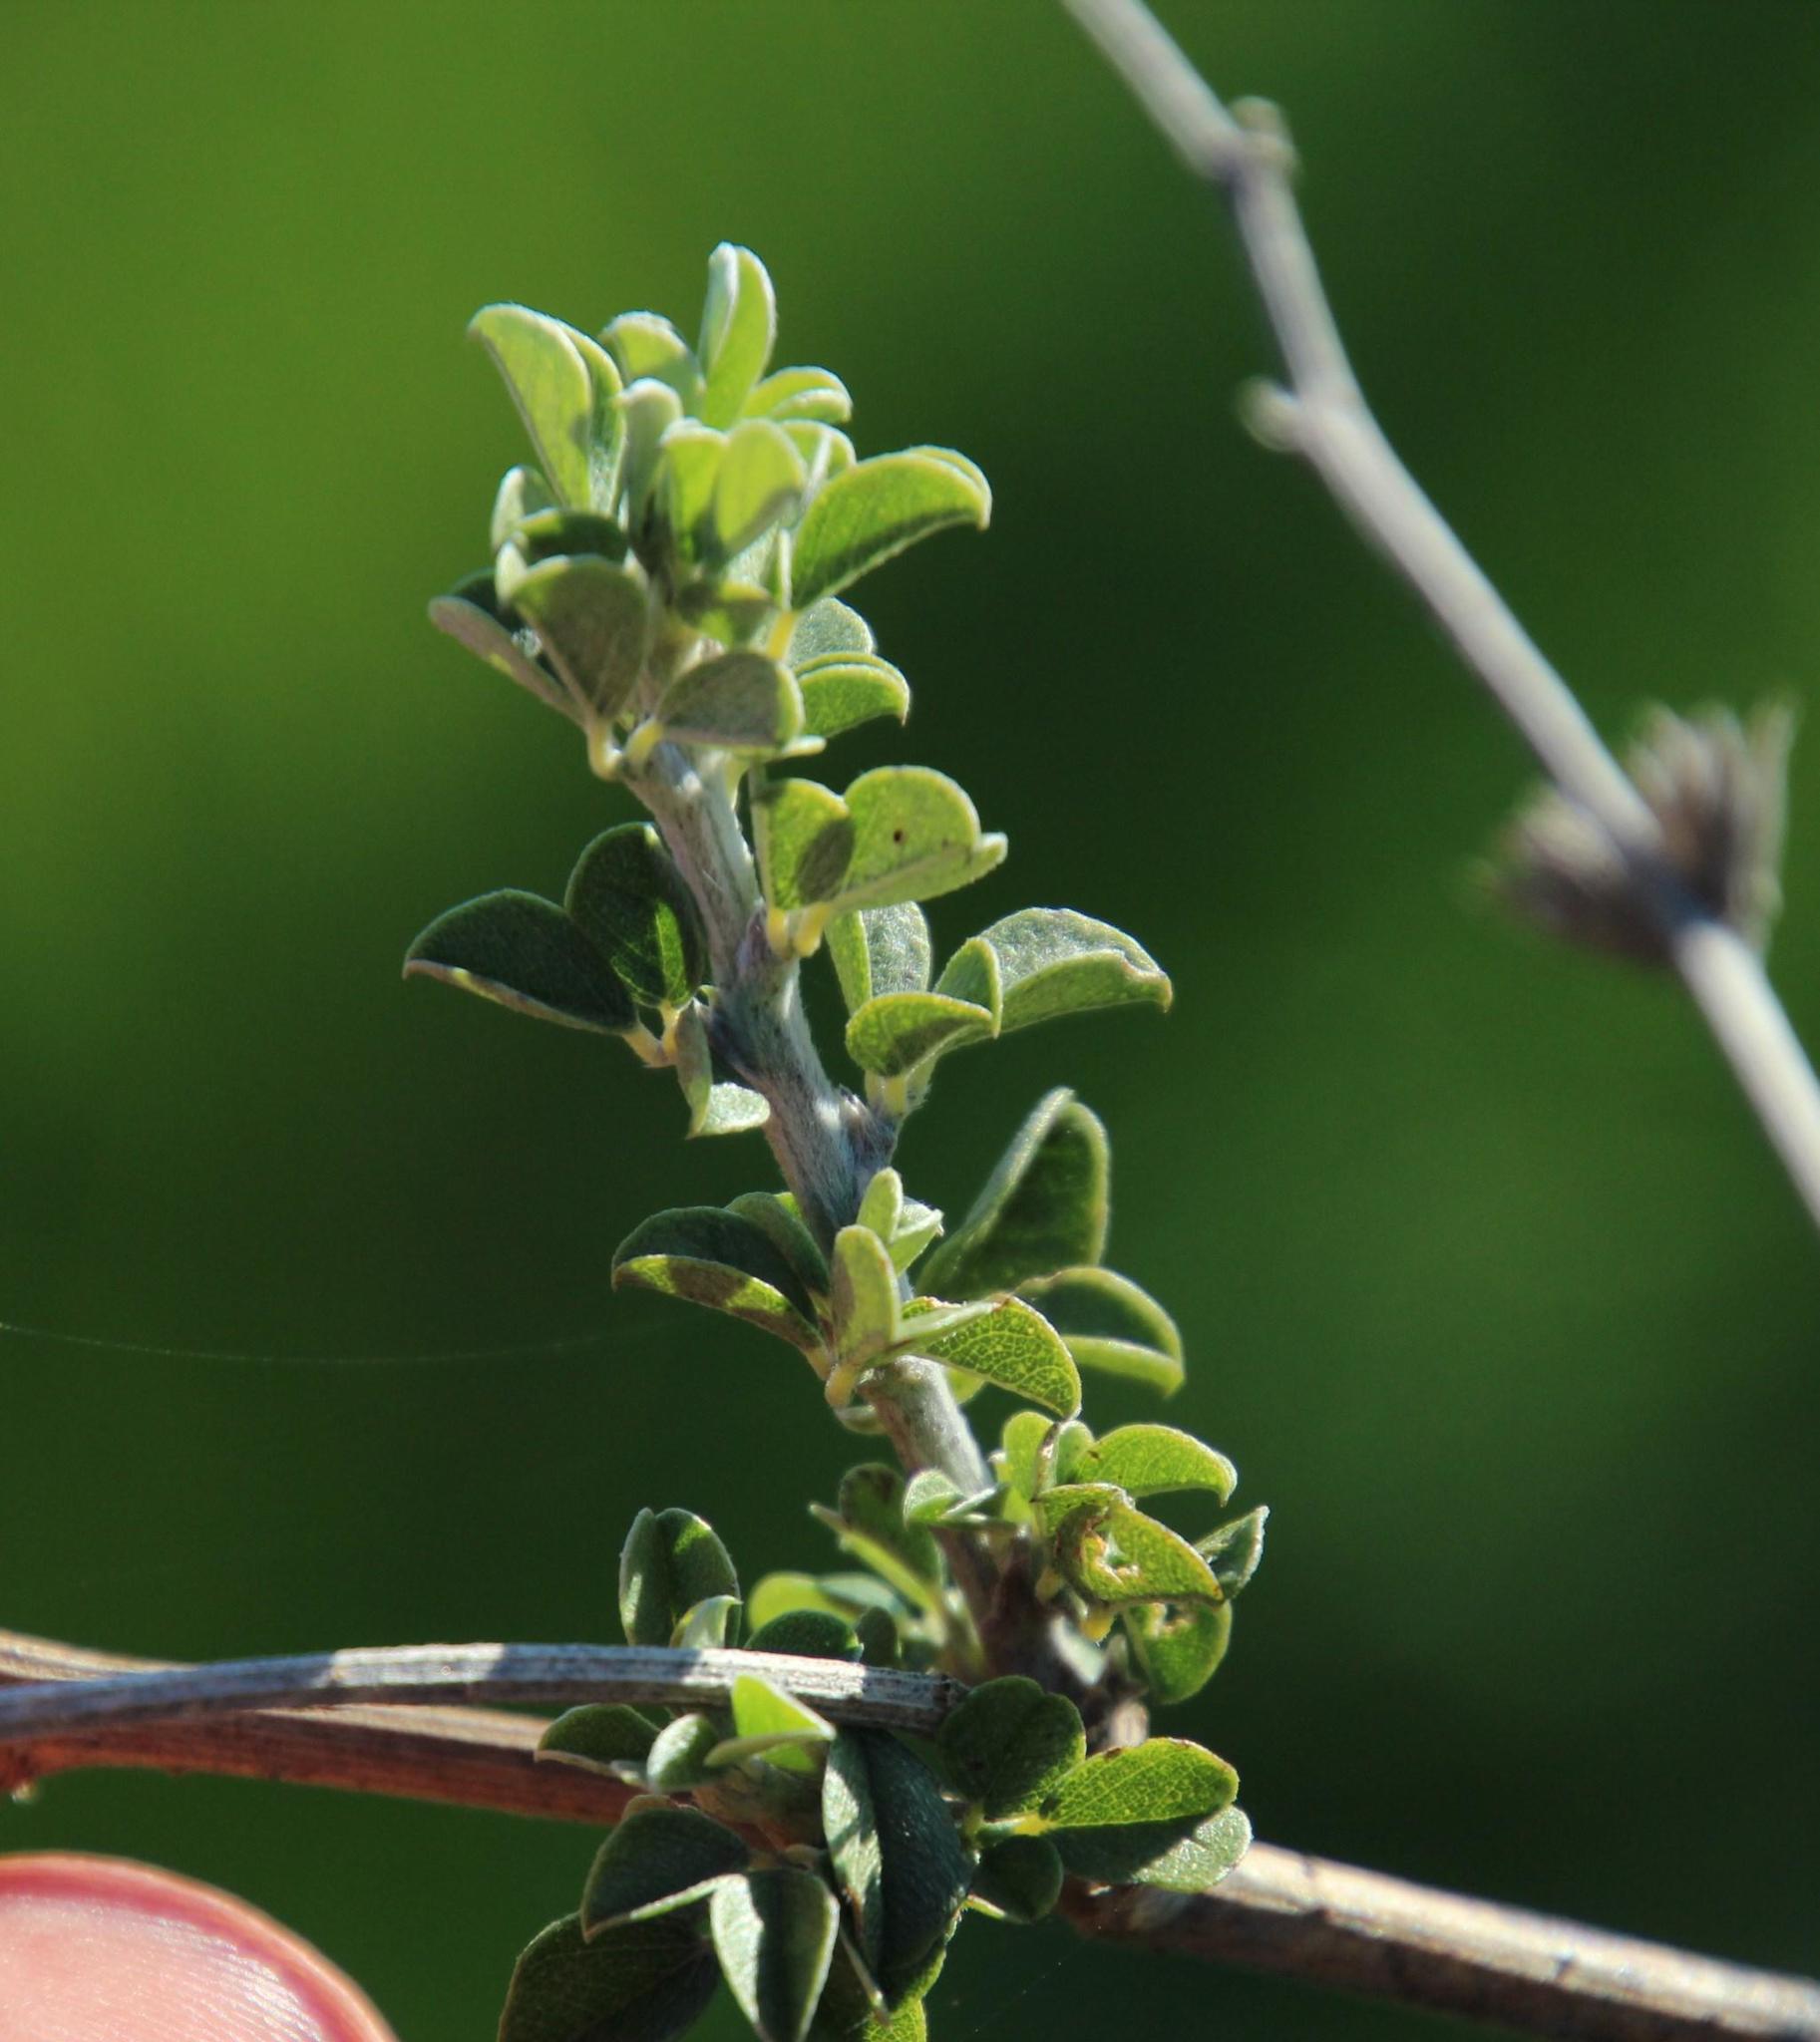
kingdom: Plantae
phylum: Tracheophyta
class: Magnoliopsida
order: Fabales
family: Fabaceae
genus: Psoralea
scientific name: Psoralea hirta
